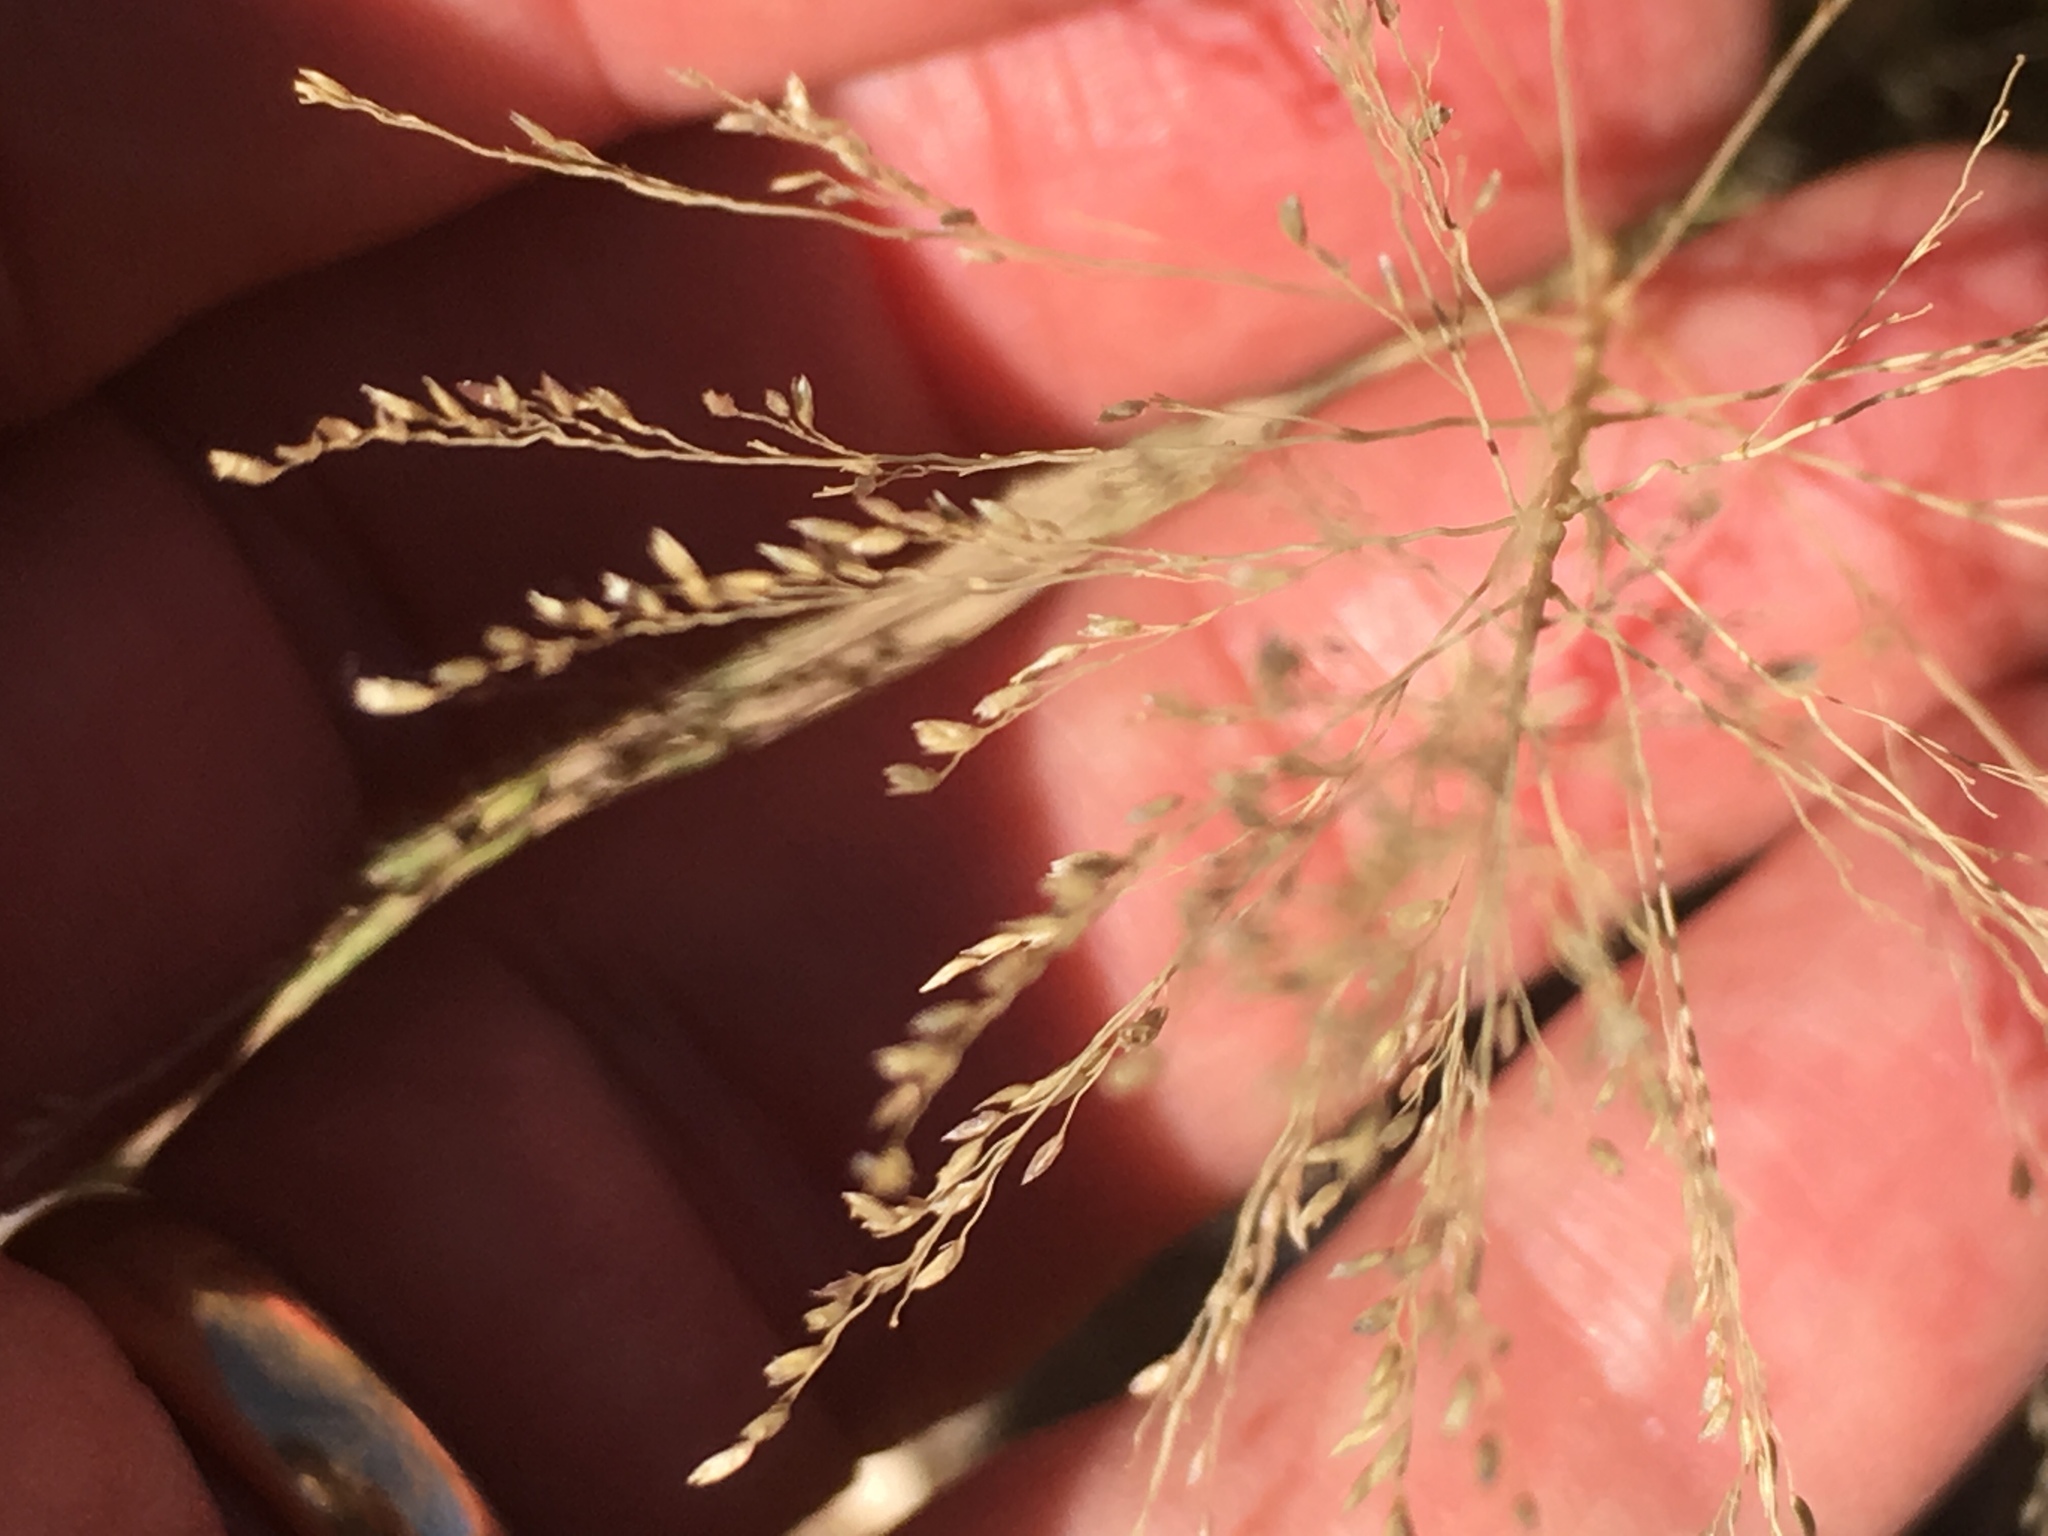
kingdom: Plantae
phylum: Tracheophyta
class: Liliopsida
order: Poales
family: Poaceae
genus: Sporobolus
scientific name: Sporobolus airoides
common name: Alkali sacaton
